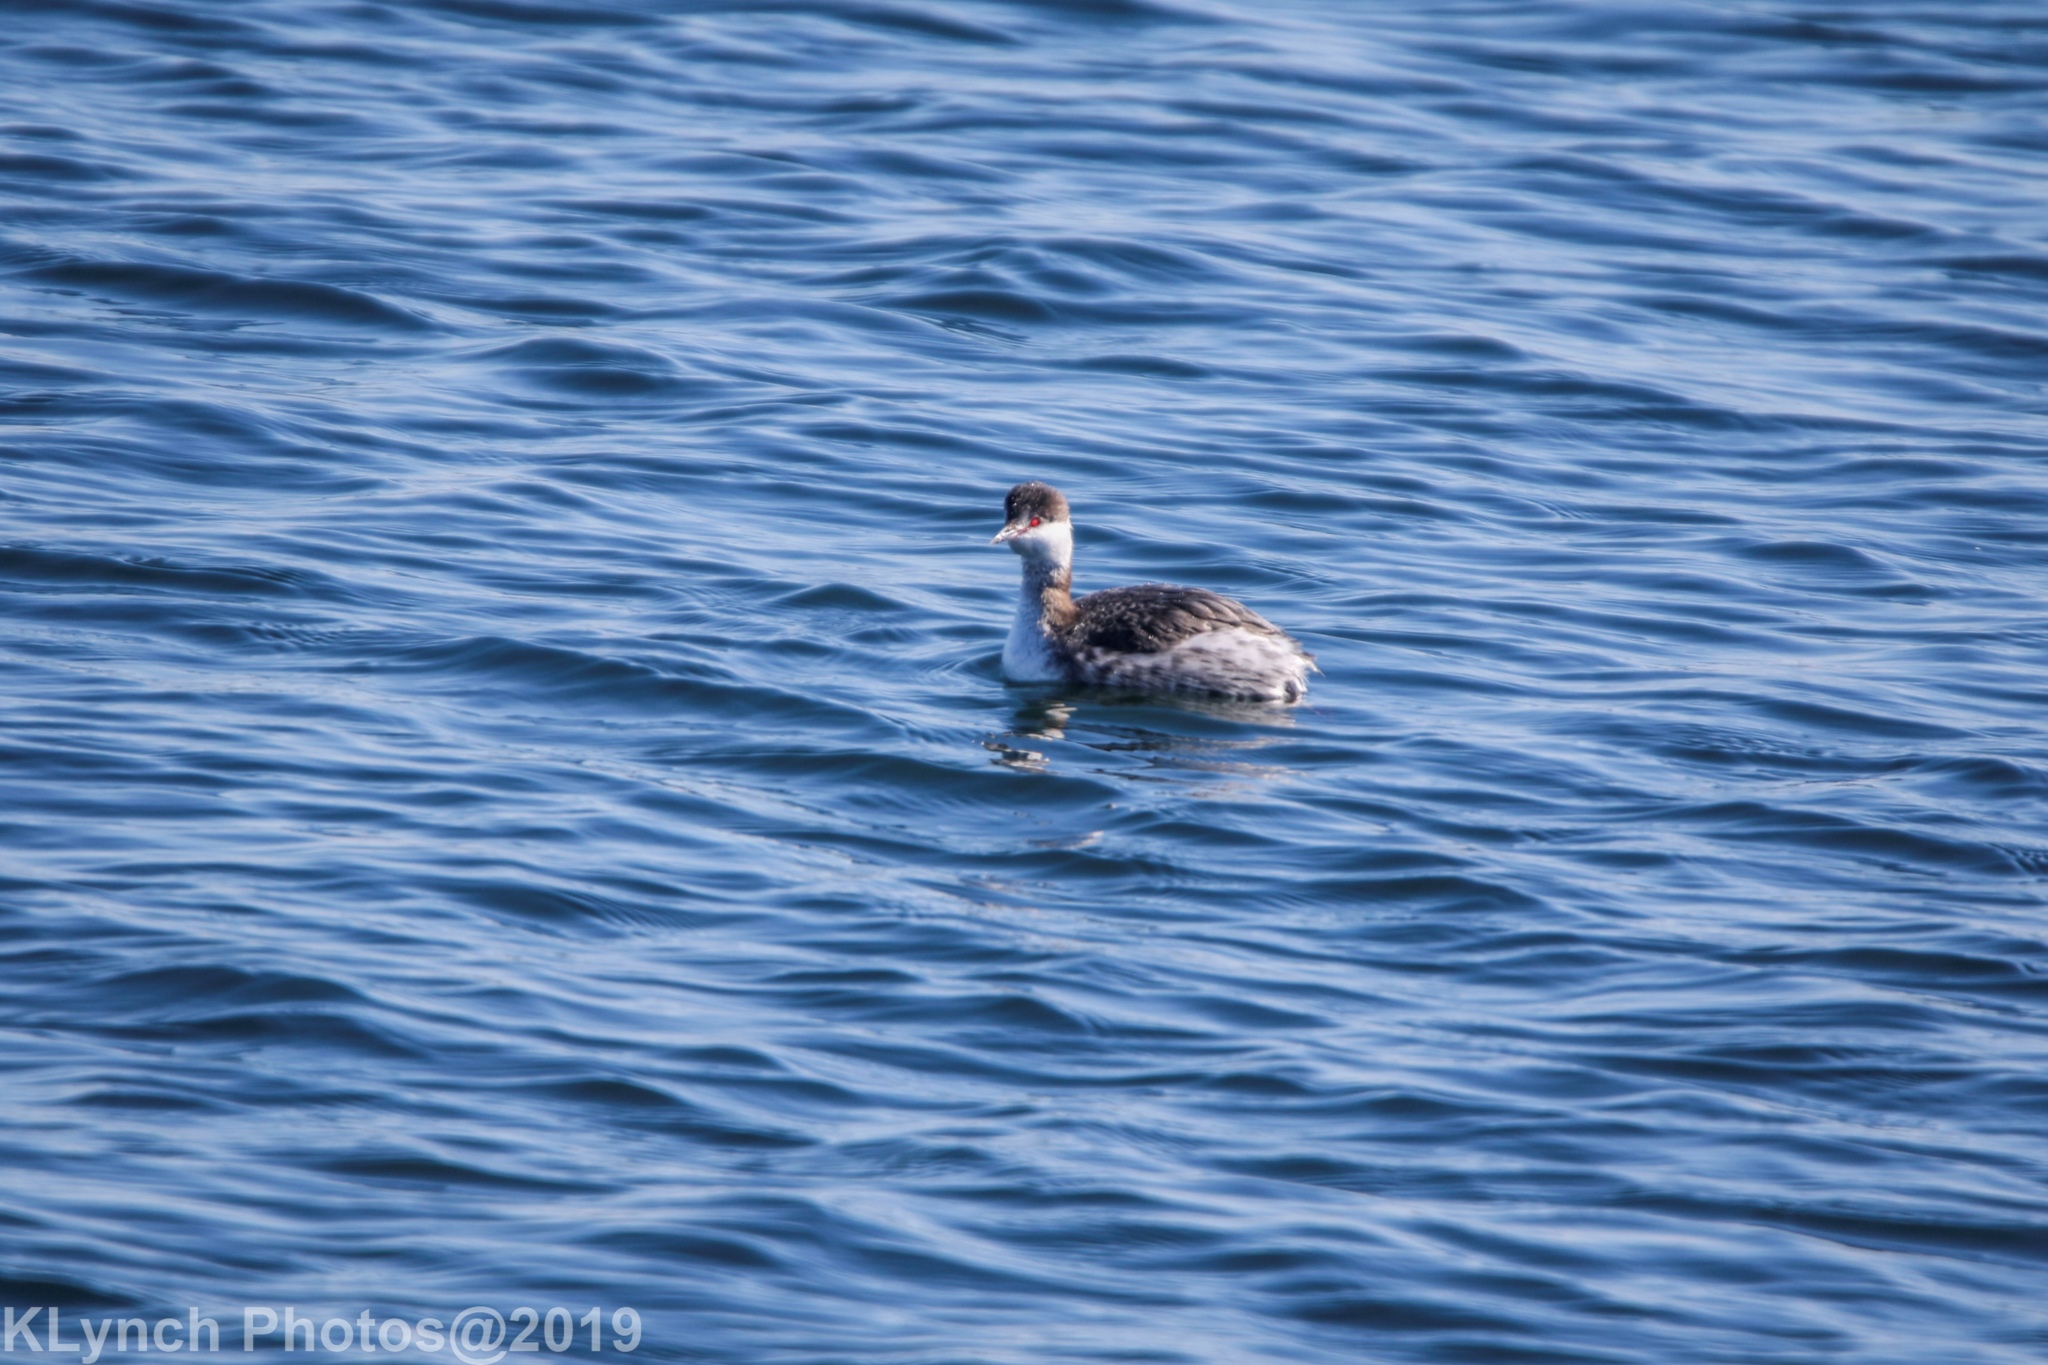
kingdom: Animalia
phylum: Chordata
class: Aves
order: Podicipediformes
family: Podicipedidae
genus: Podiceps
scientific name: Podiceps auritus
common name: Horned grebe
